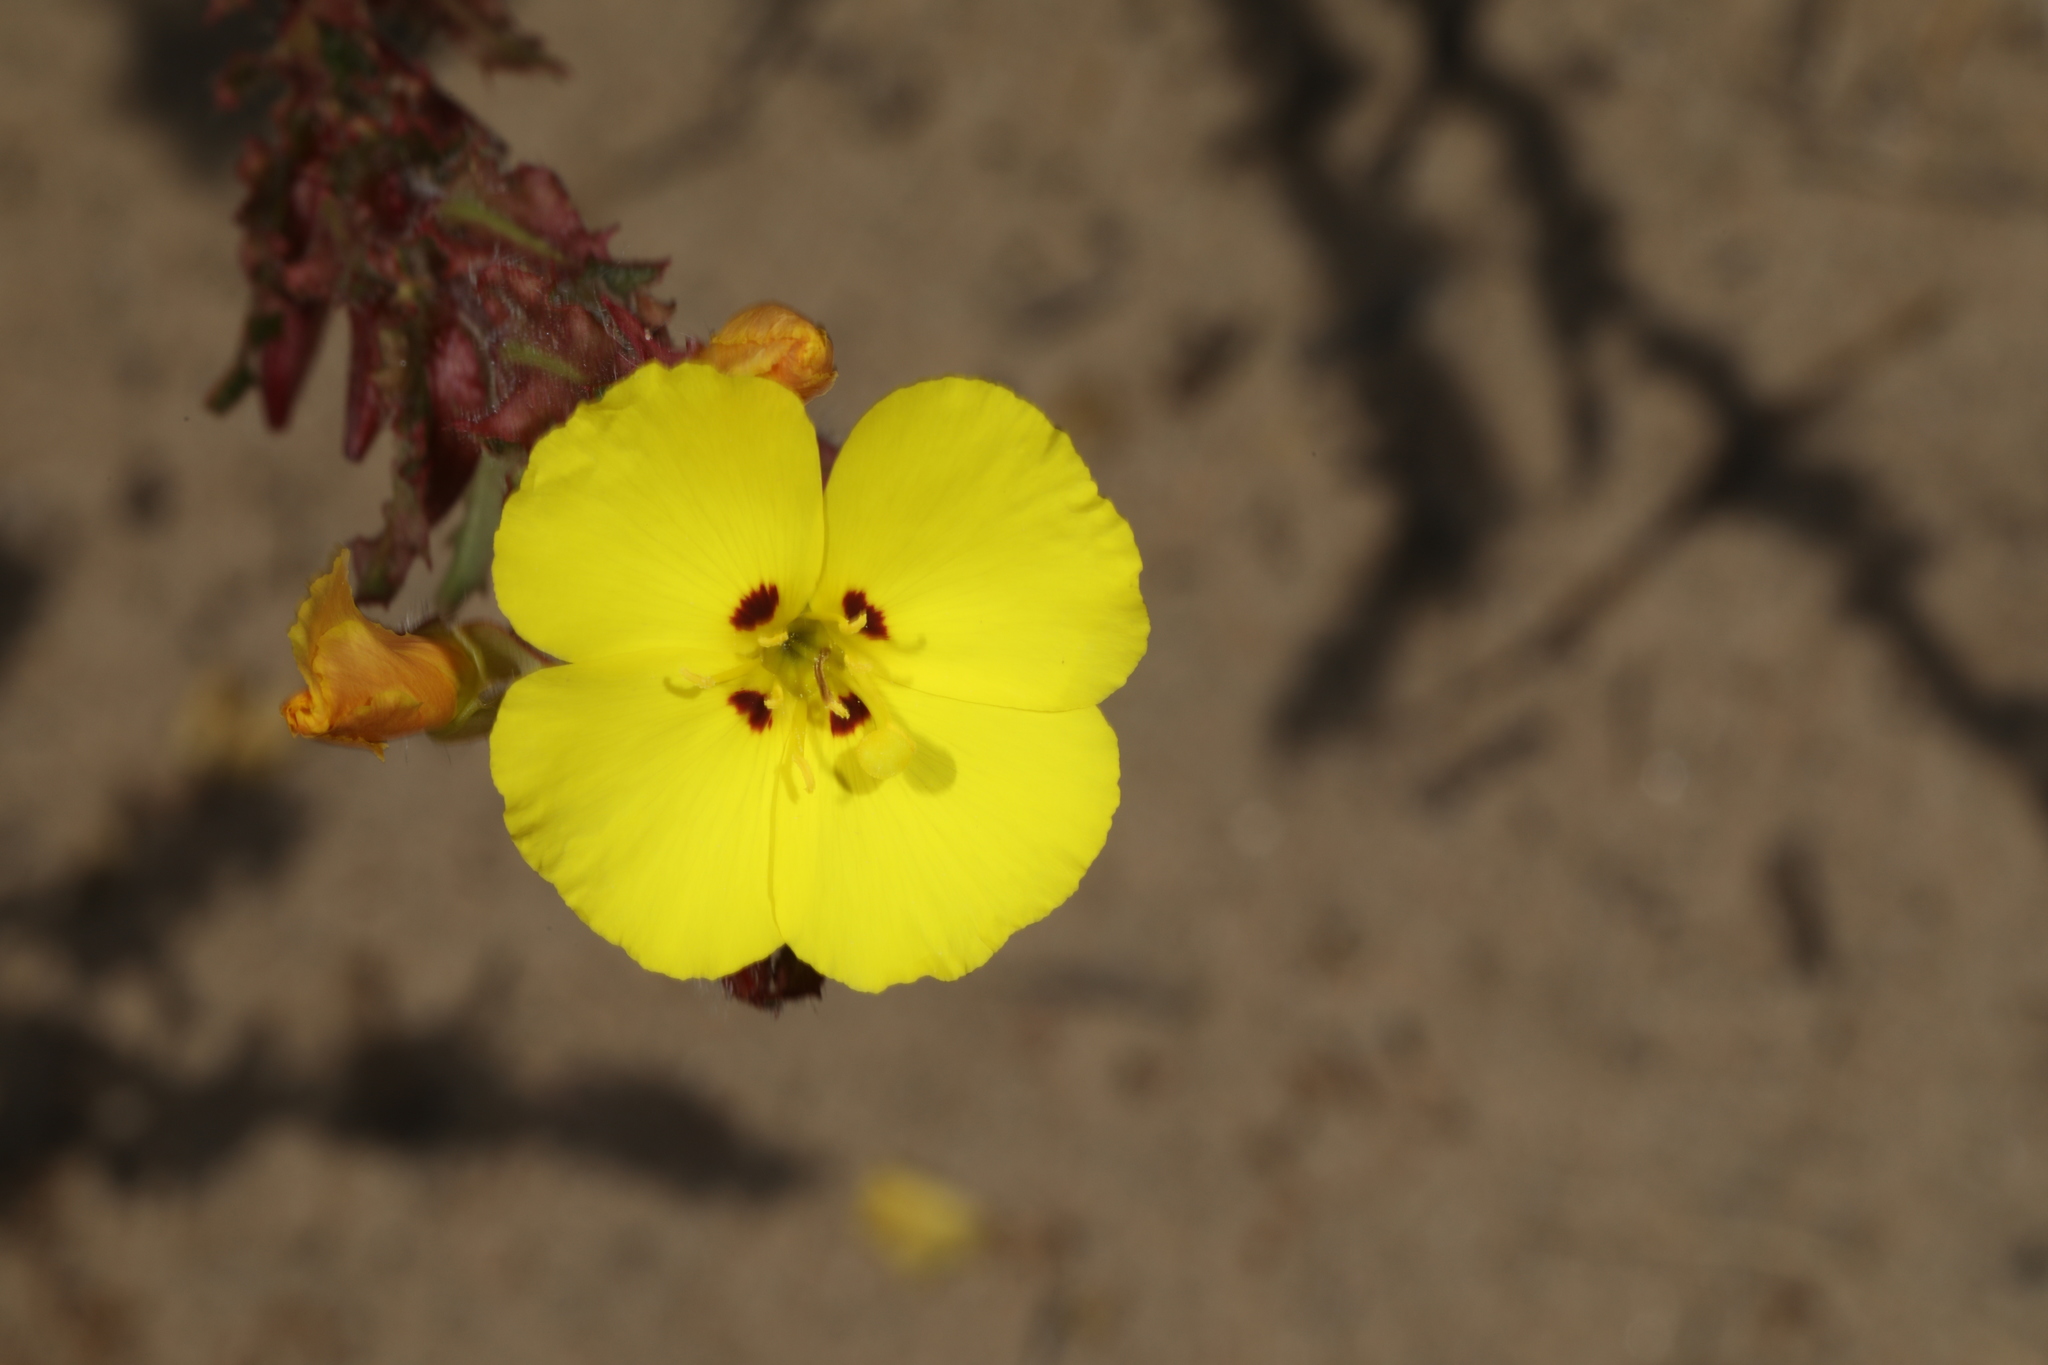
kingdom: Plantae
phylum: Tracheophyta
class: Magnoliopsida
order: Myrtales
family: Onagraceae
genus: Camissoniopsis
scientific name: Camissoniopsis cheiranthifolia
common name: Beach suncup
